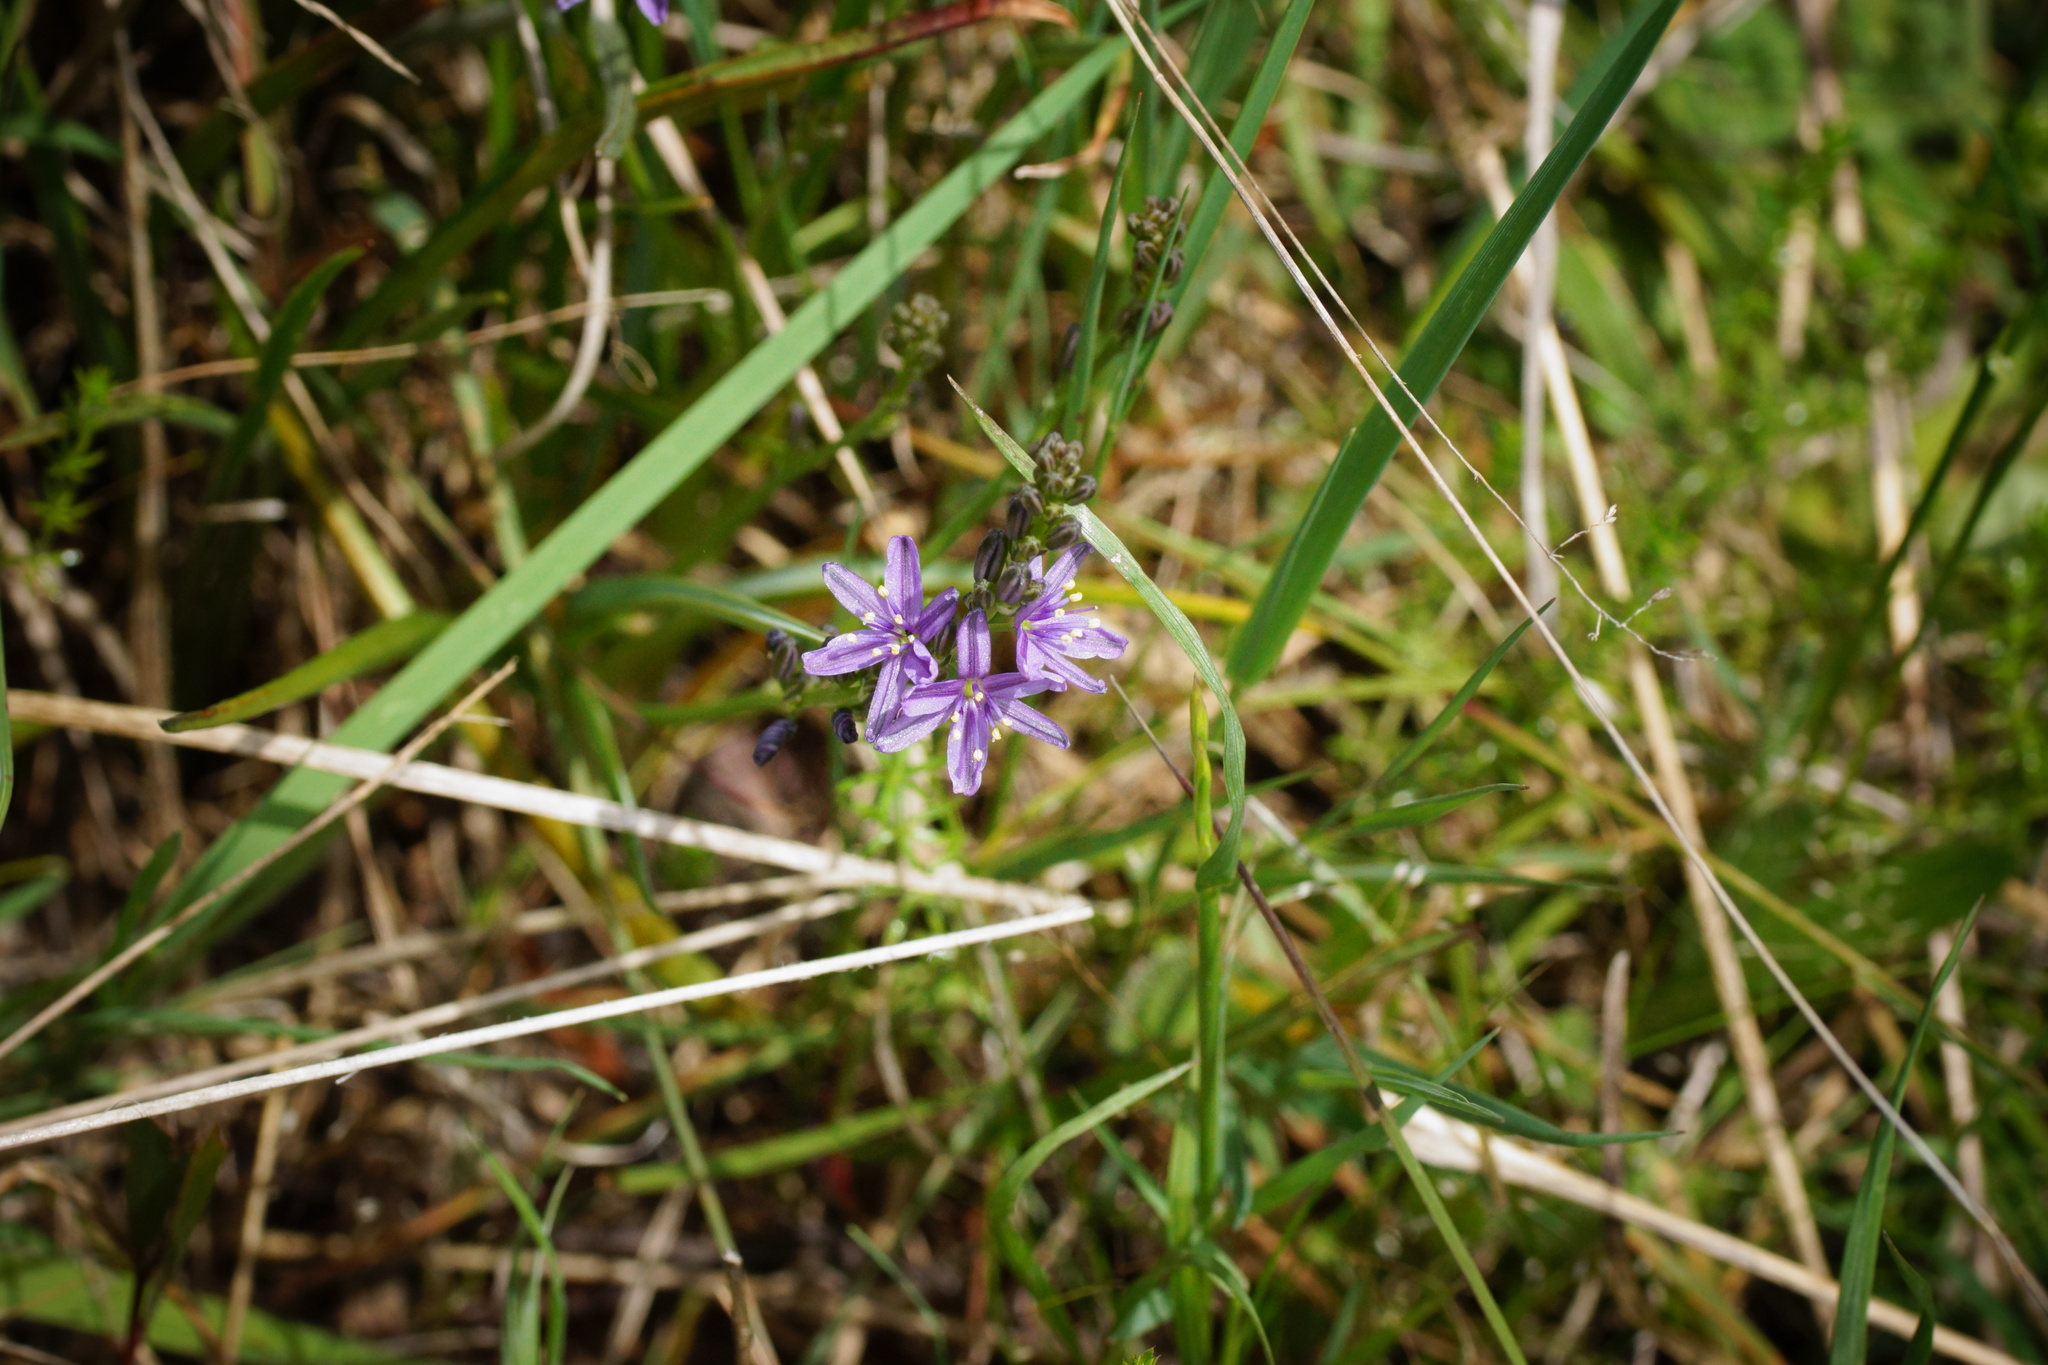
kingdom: Plantae
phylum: Tracheophyta
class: Liliopsida
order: Asparagales
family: Asphodelaceae
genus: Caesia
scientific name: Caesia calliantha
